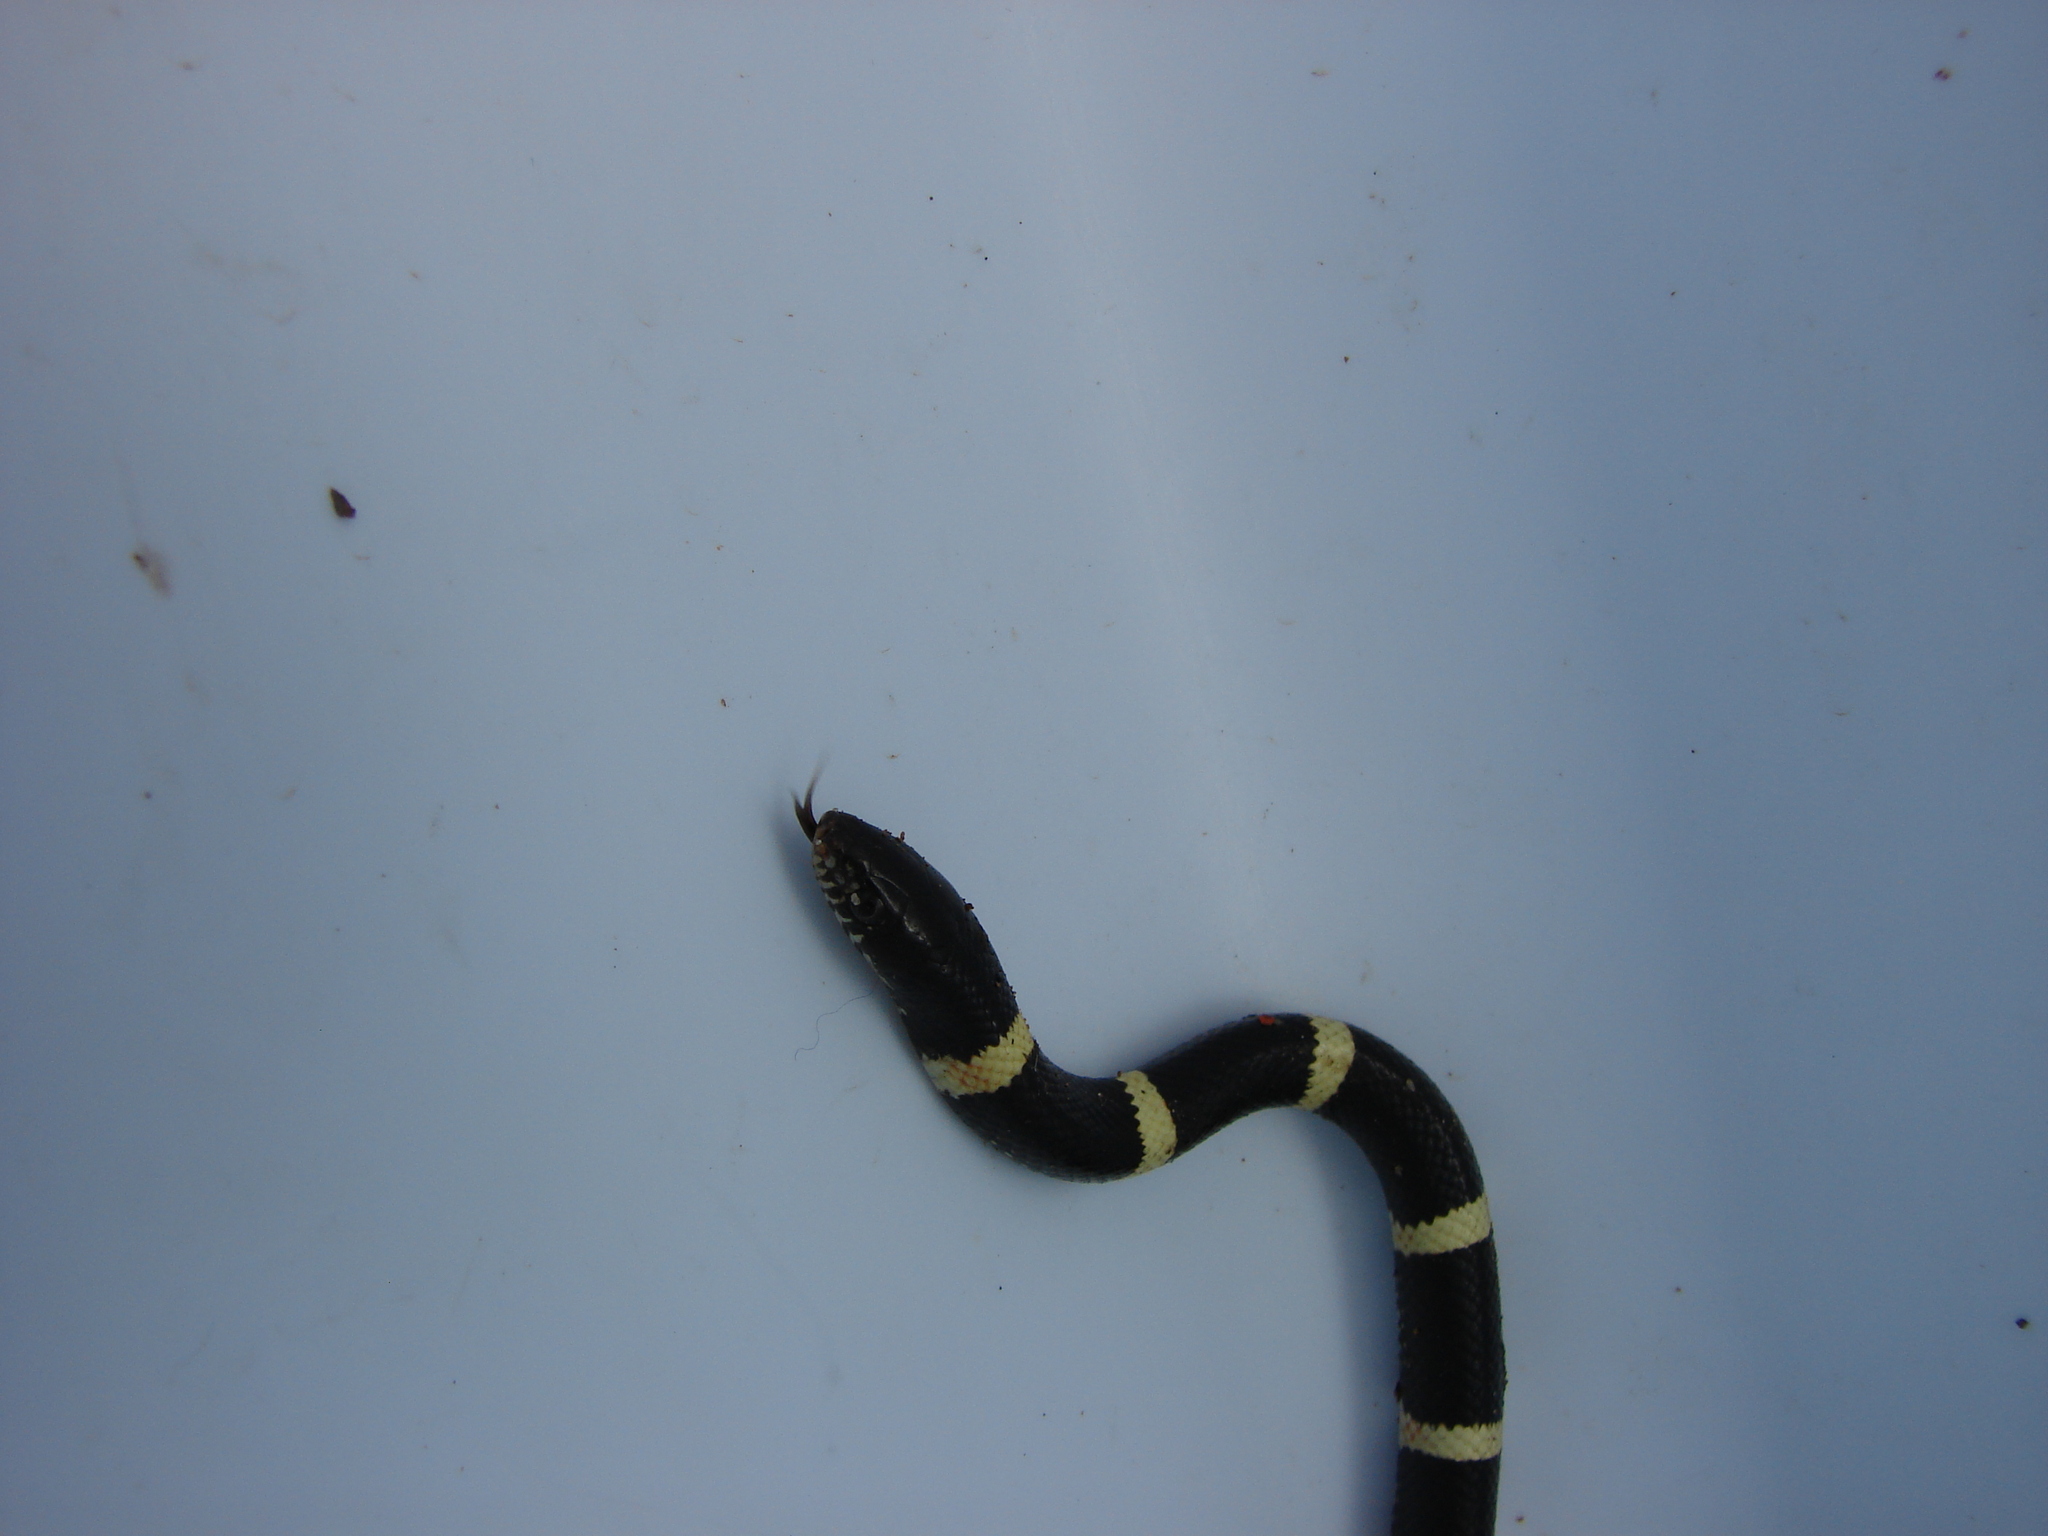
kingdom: Animalia
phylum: Chordata
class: Squamata
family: Colubridae
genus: Rhinocheilus
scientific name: Rhinocheilus antonii
